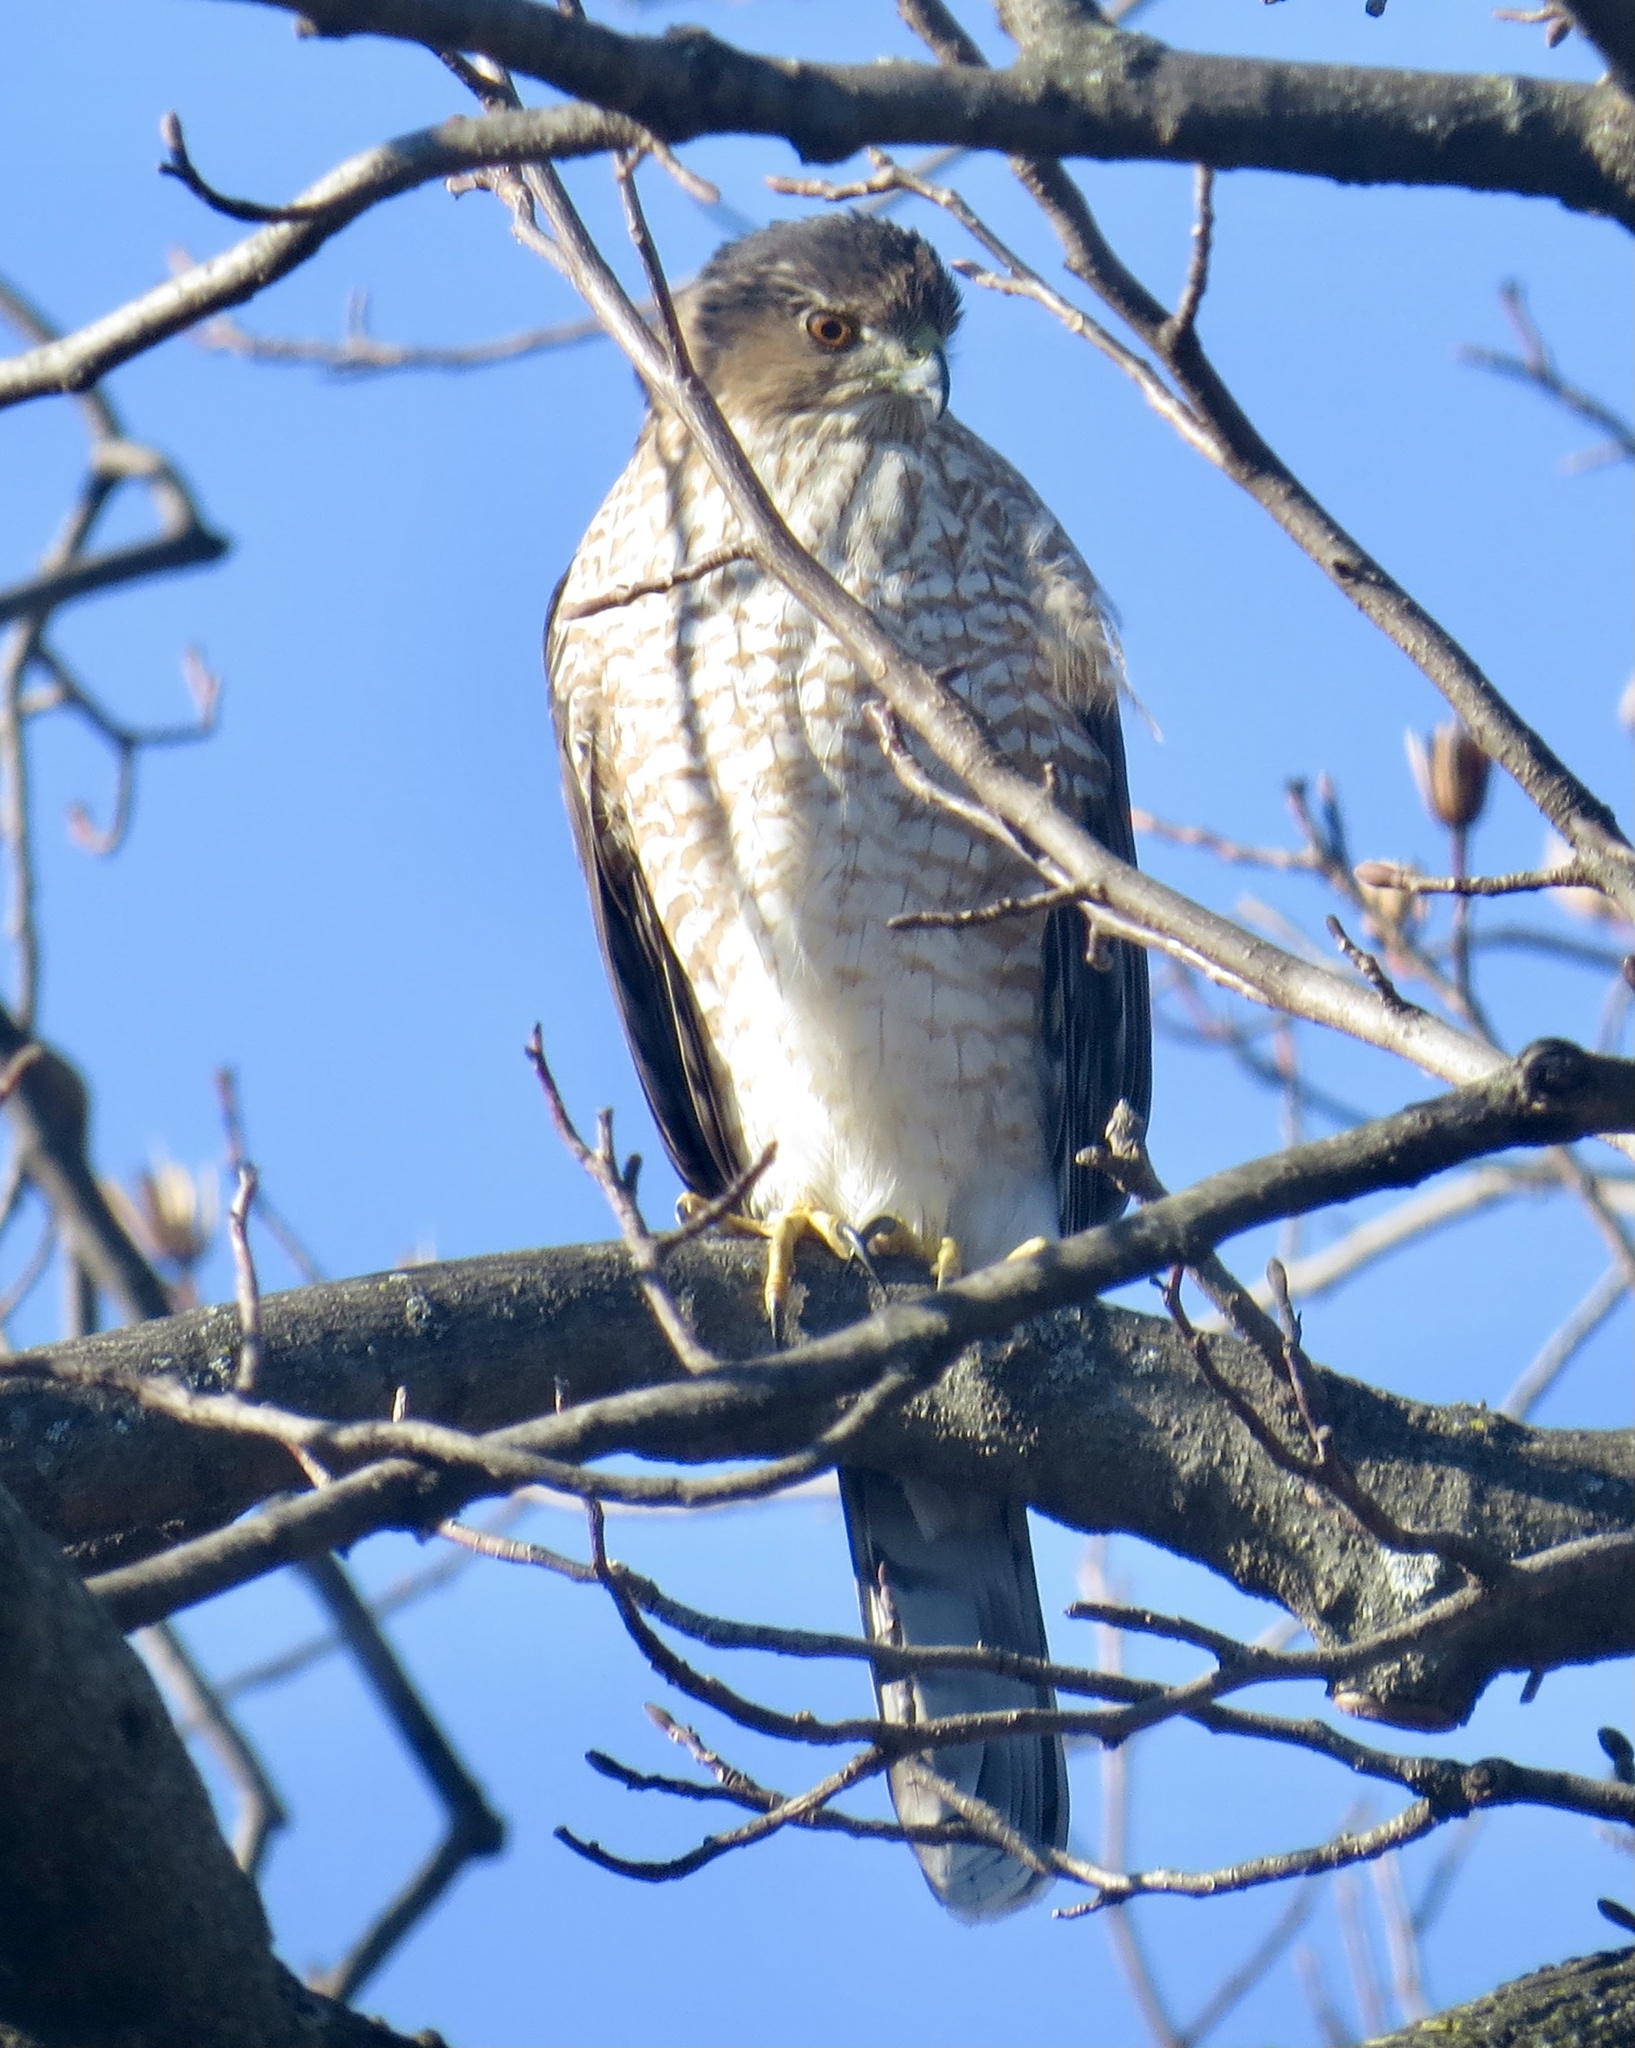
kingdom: Animalia
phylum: Chordata
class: Aves
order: Accipitriformes
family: Accipitridae
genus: Accipiter
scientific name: Accipiter cooperii
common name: Cooper's hawk
